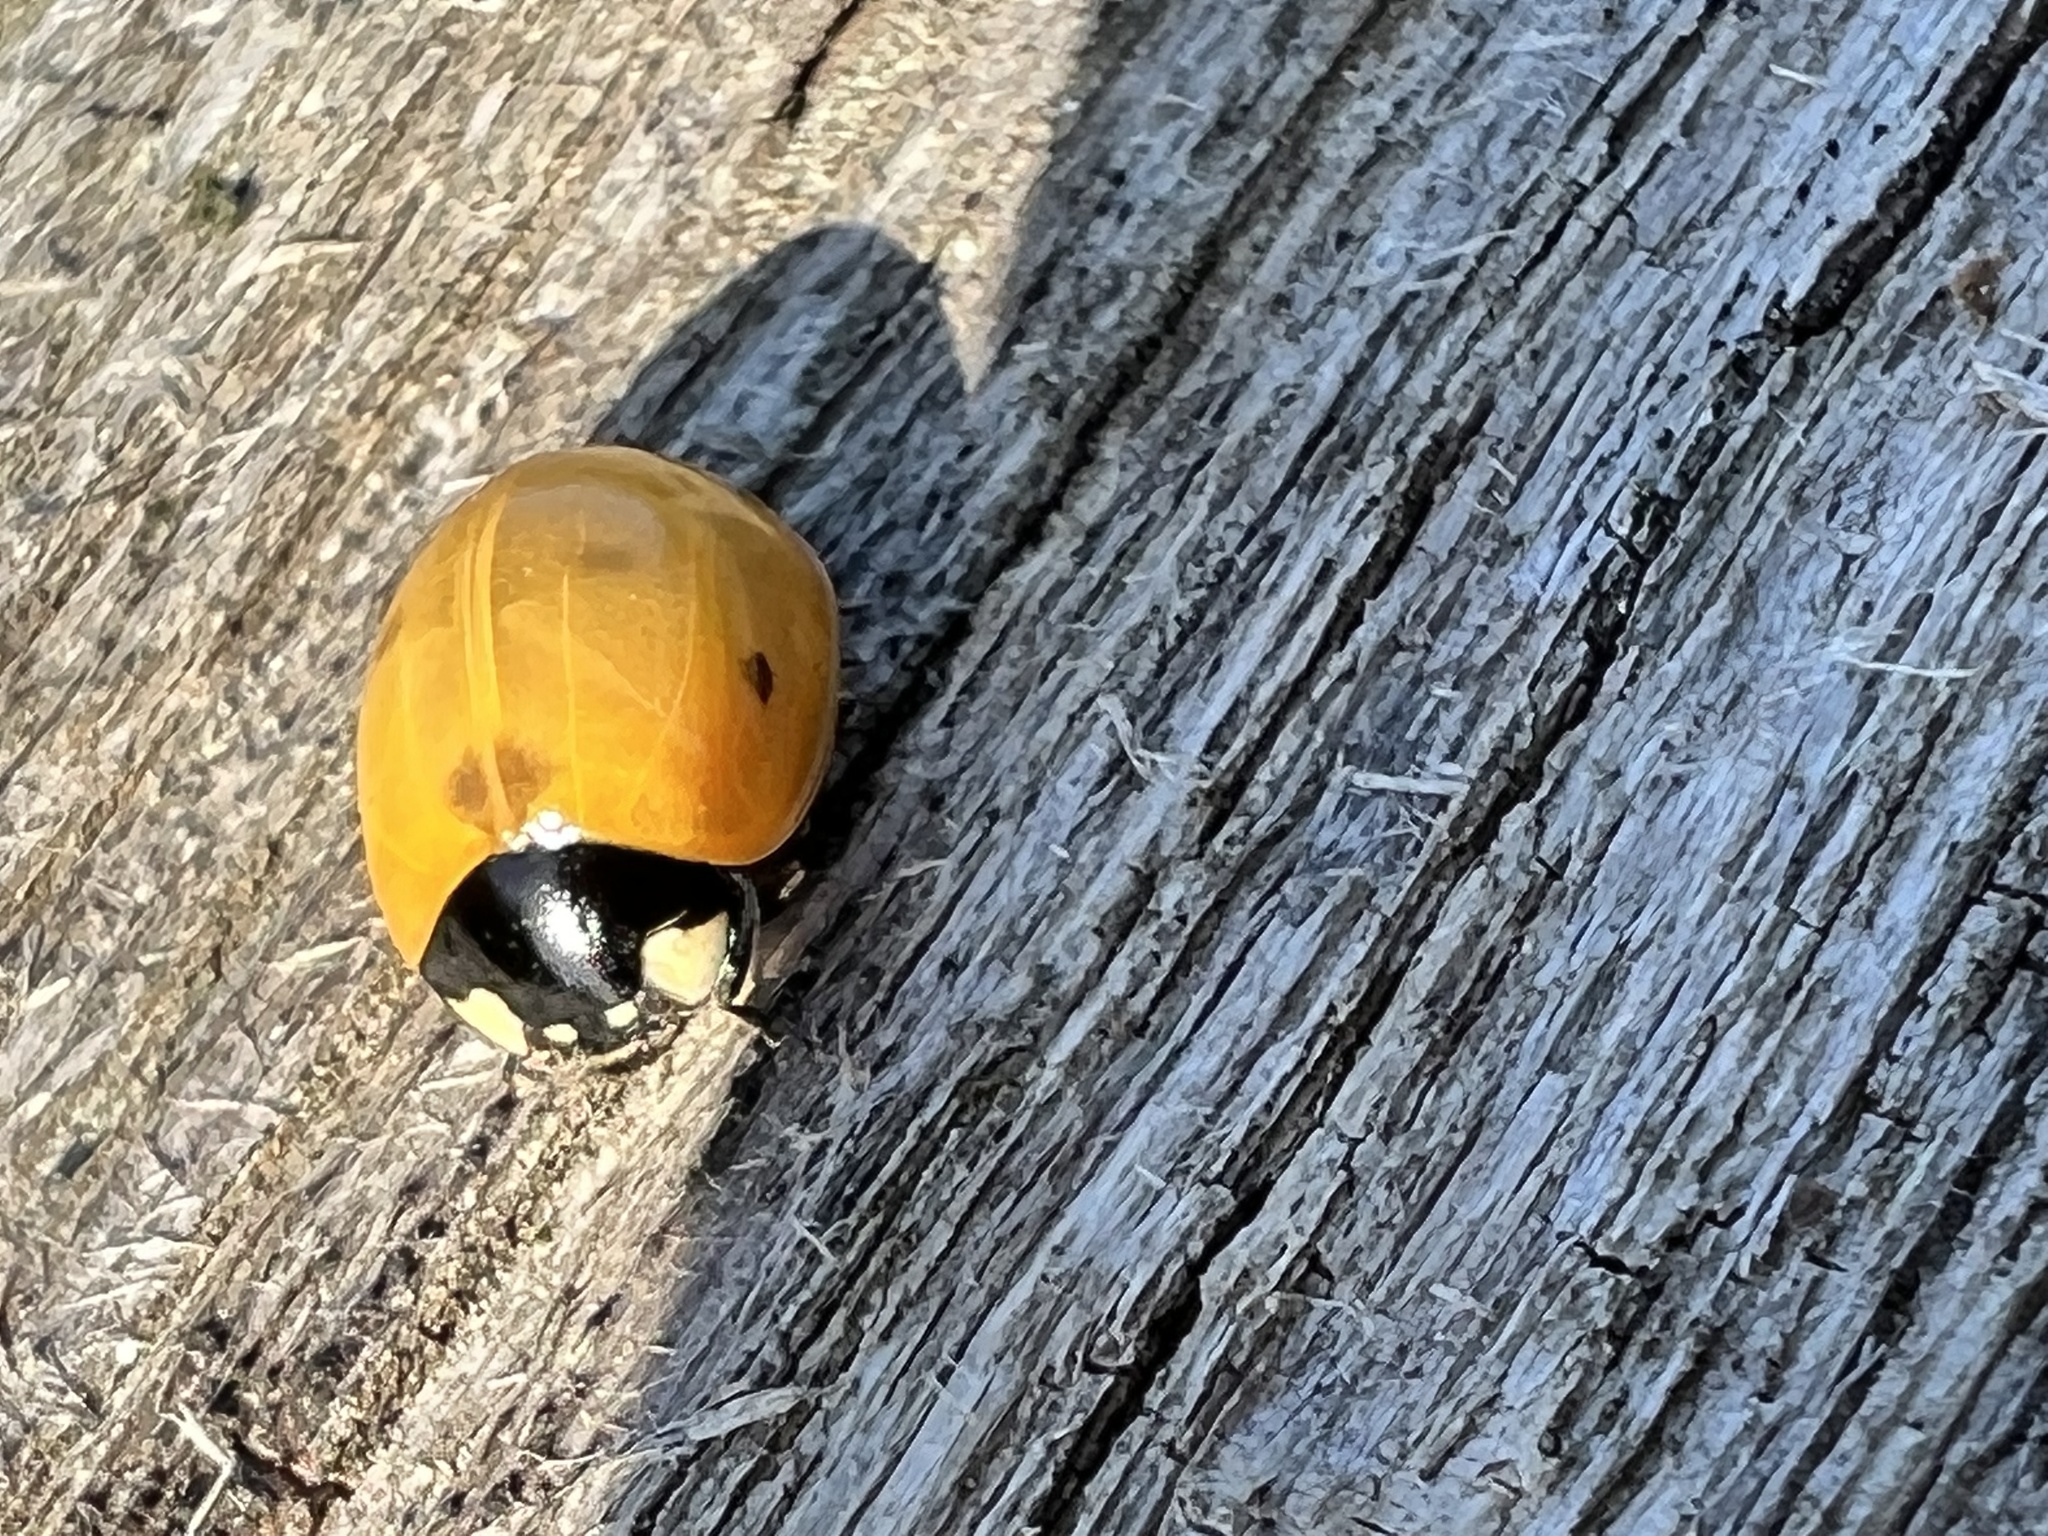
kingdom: Animalia
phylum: Arthropoda
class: Insecta
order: Coleoptera
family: Coccinellidae
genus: Coccinella
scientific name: Coccinella septempunctata
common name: Sevenspotted lady beetle
